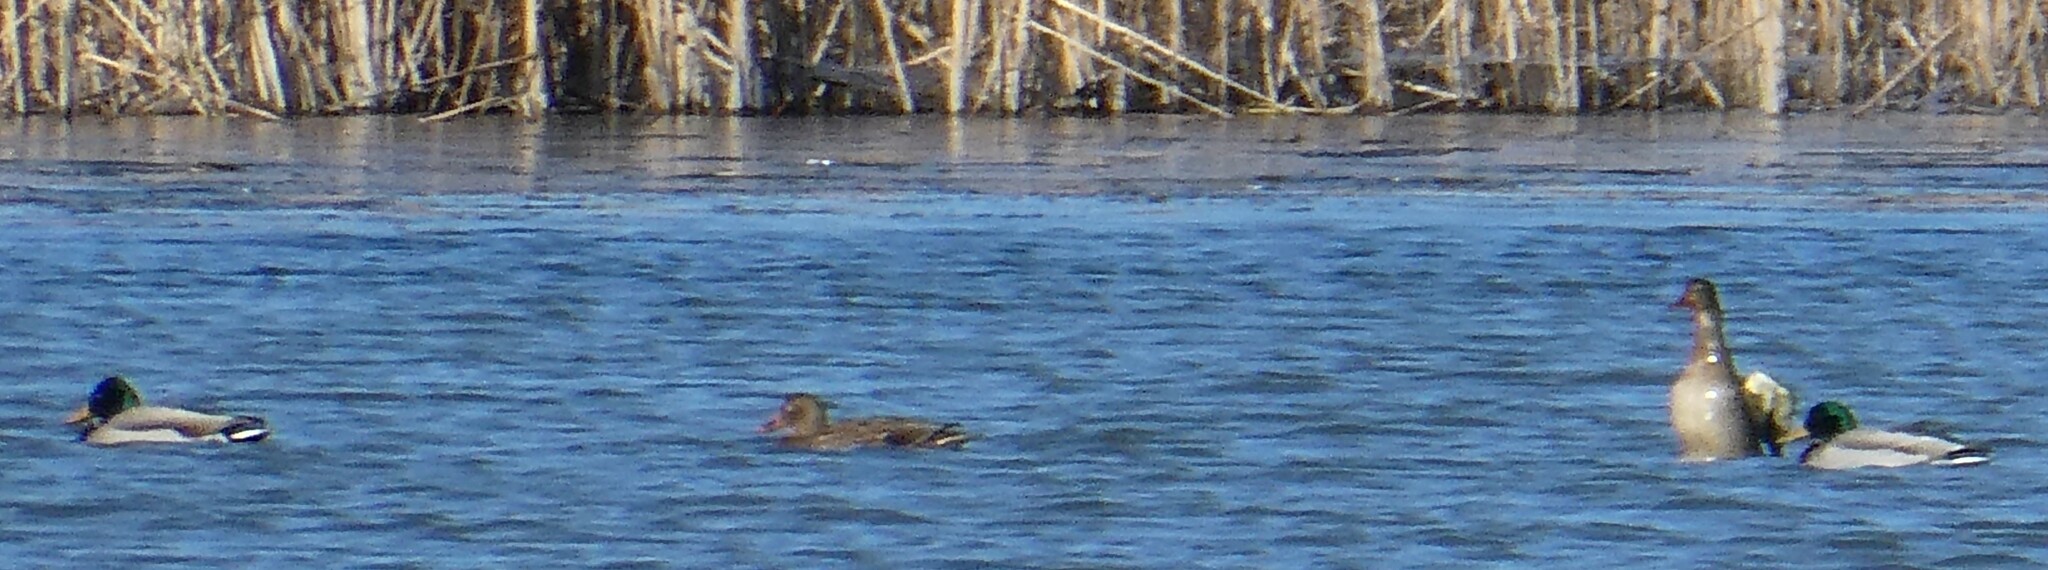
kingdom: Animalia
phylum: Chordata
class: Aves
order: Anseriformes
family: Anatidae
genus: Anas
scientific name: Anas platyrhynchos
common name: Mallard
